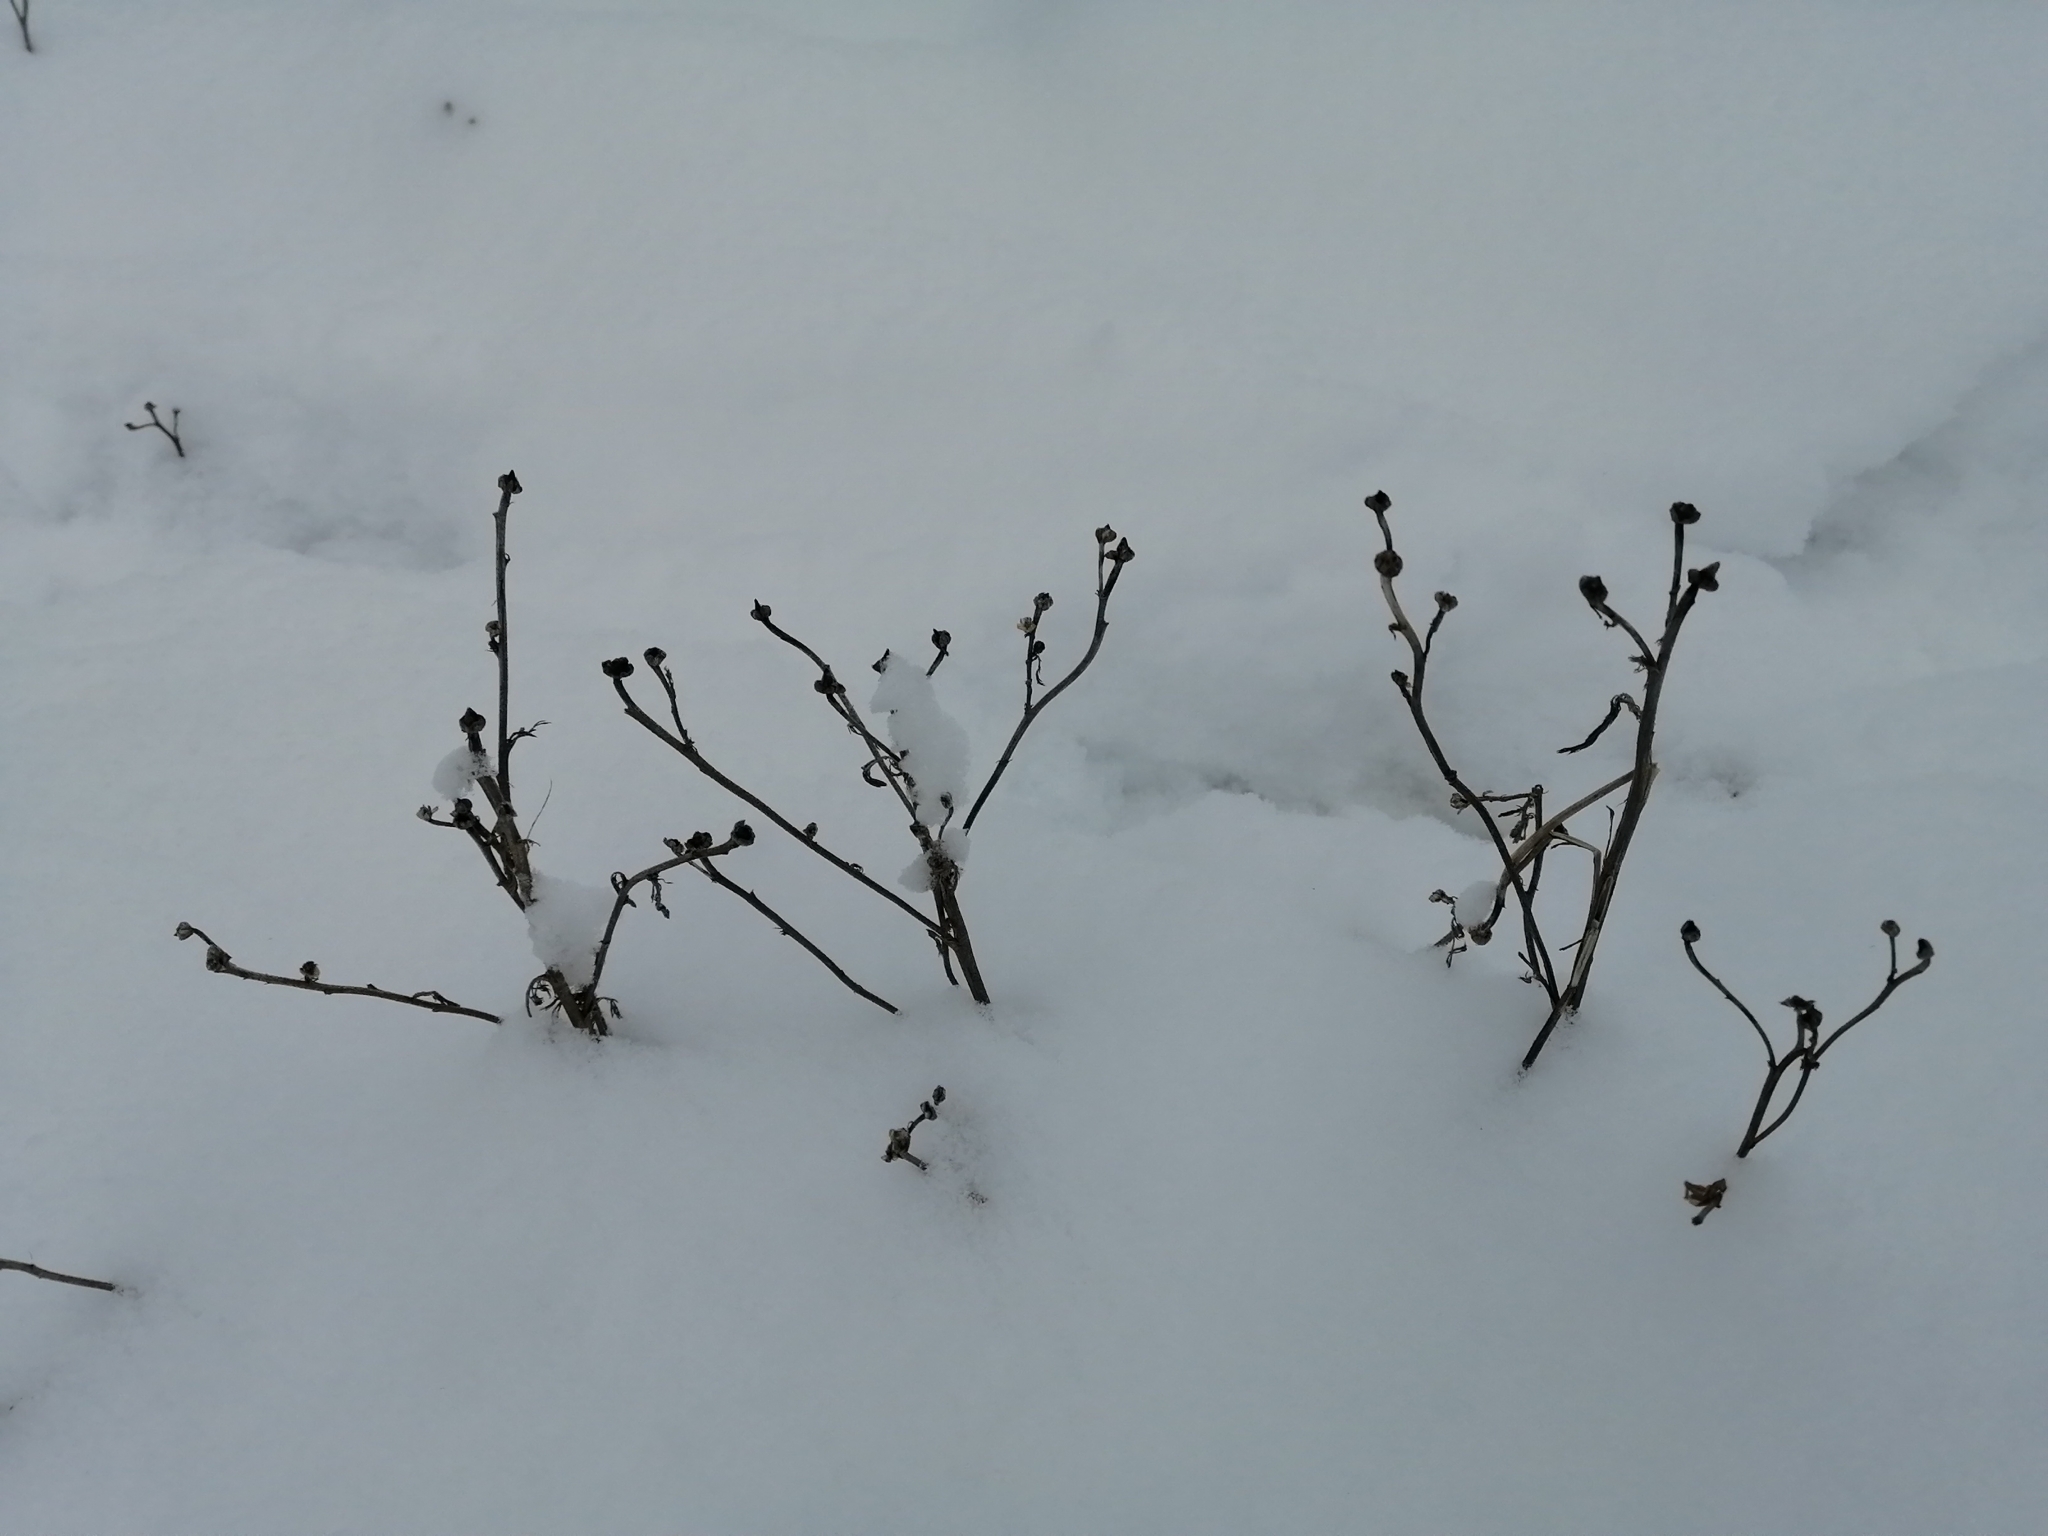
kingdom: Plantae
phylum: Tracheophyta
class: Magnoliopsida
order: Asterales
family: Asteraceae
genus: Matricaria
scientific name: Matricaria discoidea
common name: Disc mayweed
